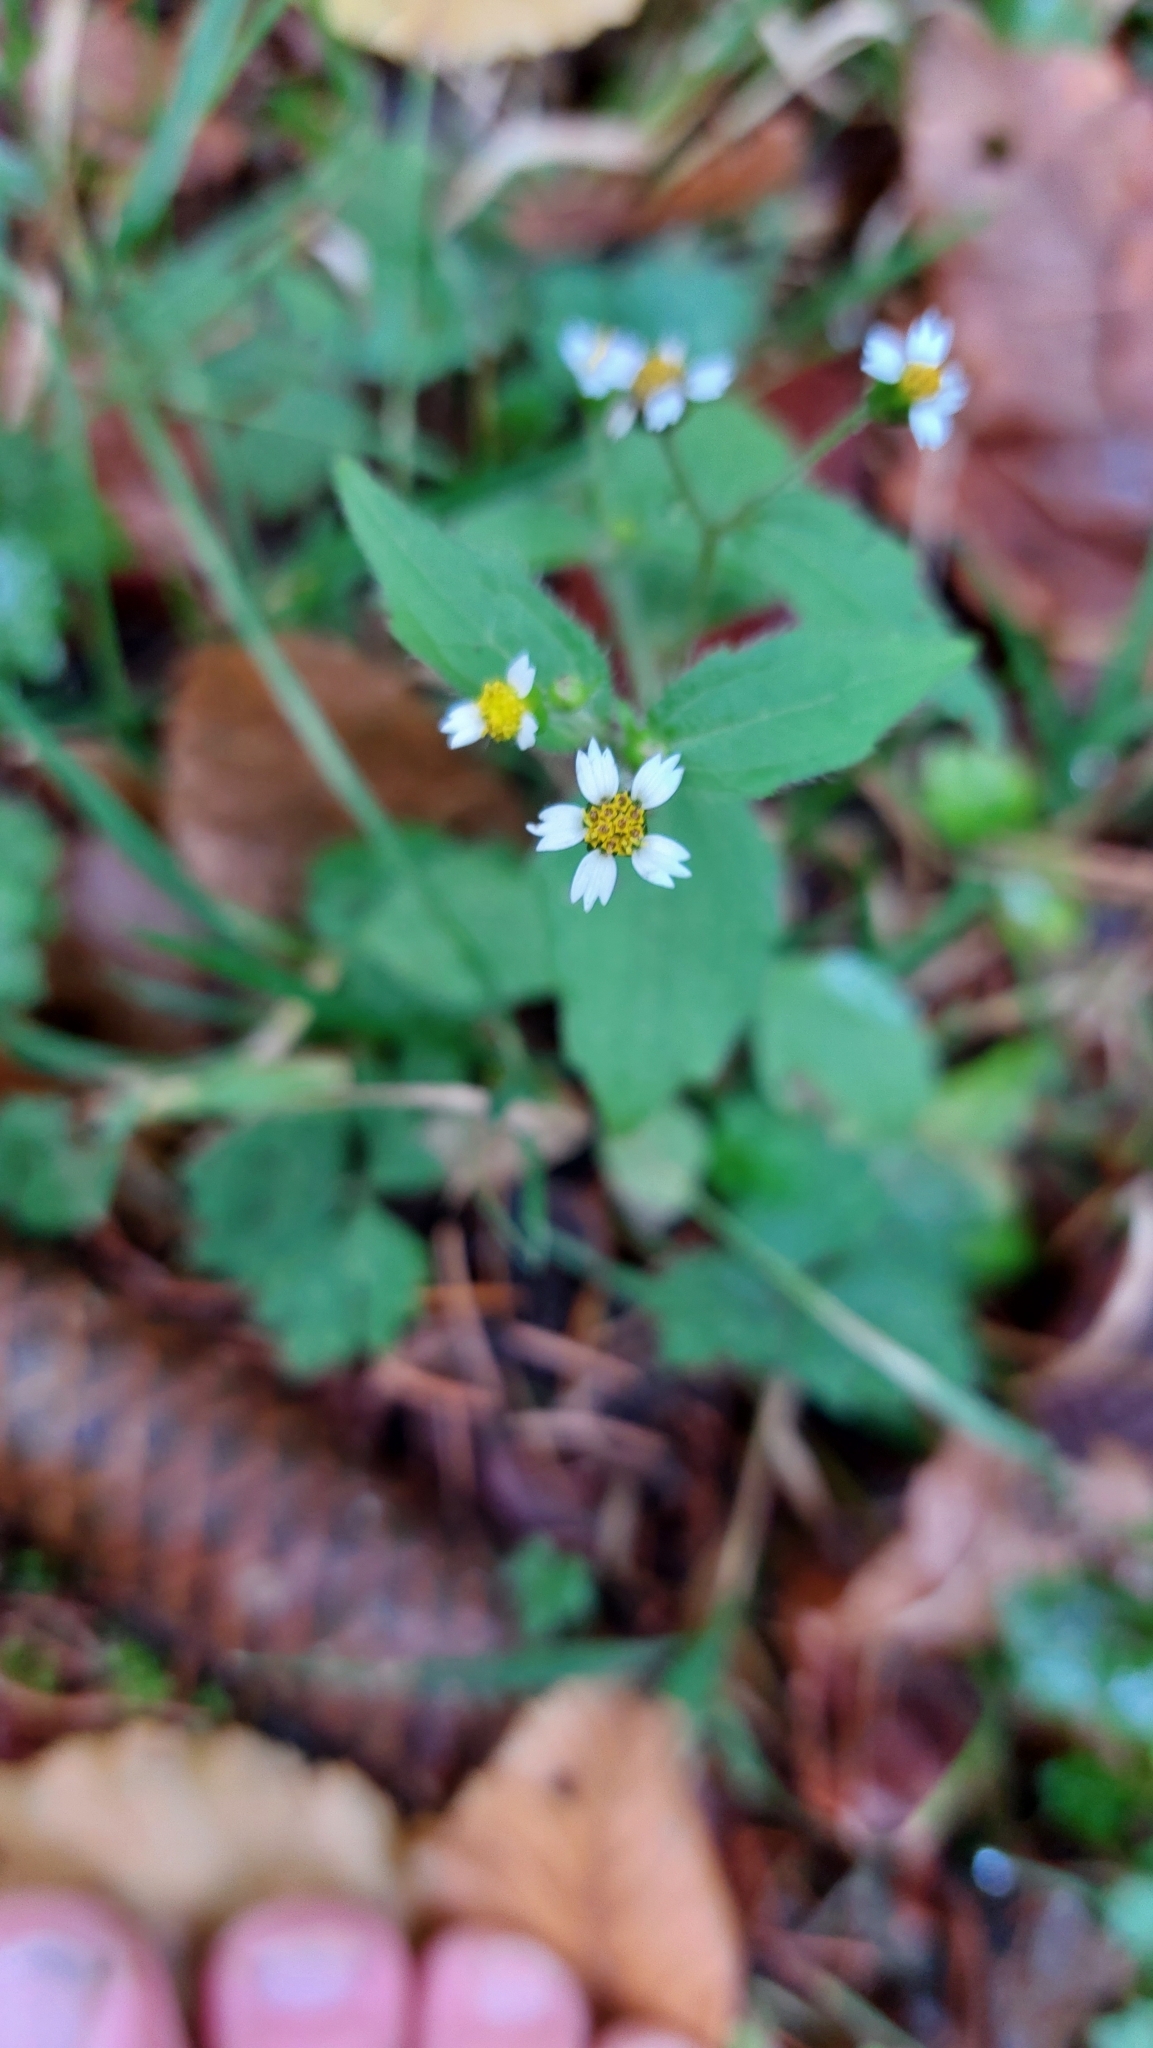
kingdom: Plantae
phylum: Tracheophyta
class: Magnoliopsida
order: Asterales
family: Asteraceae
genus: Galinsoga
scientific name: Galinsoga quadriradiata
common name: Shaggy soldier
